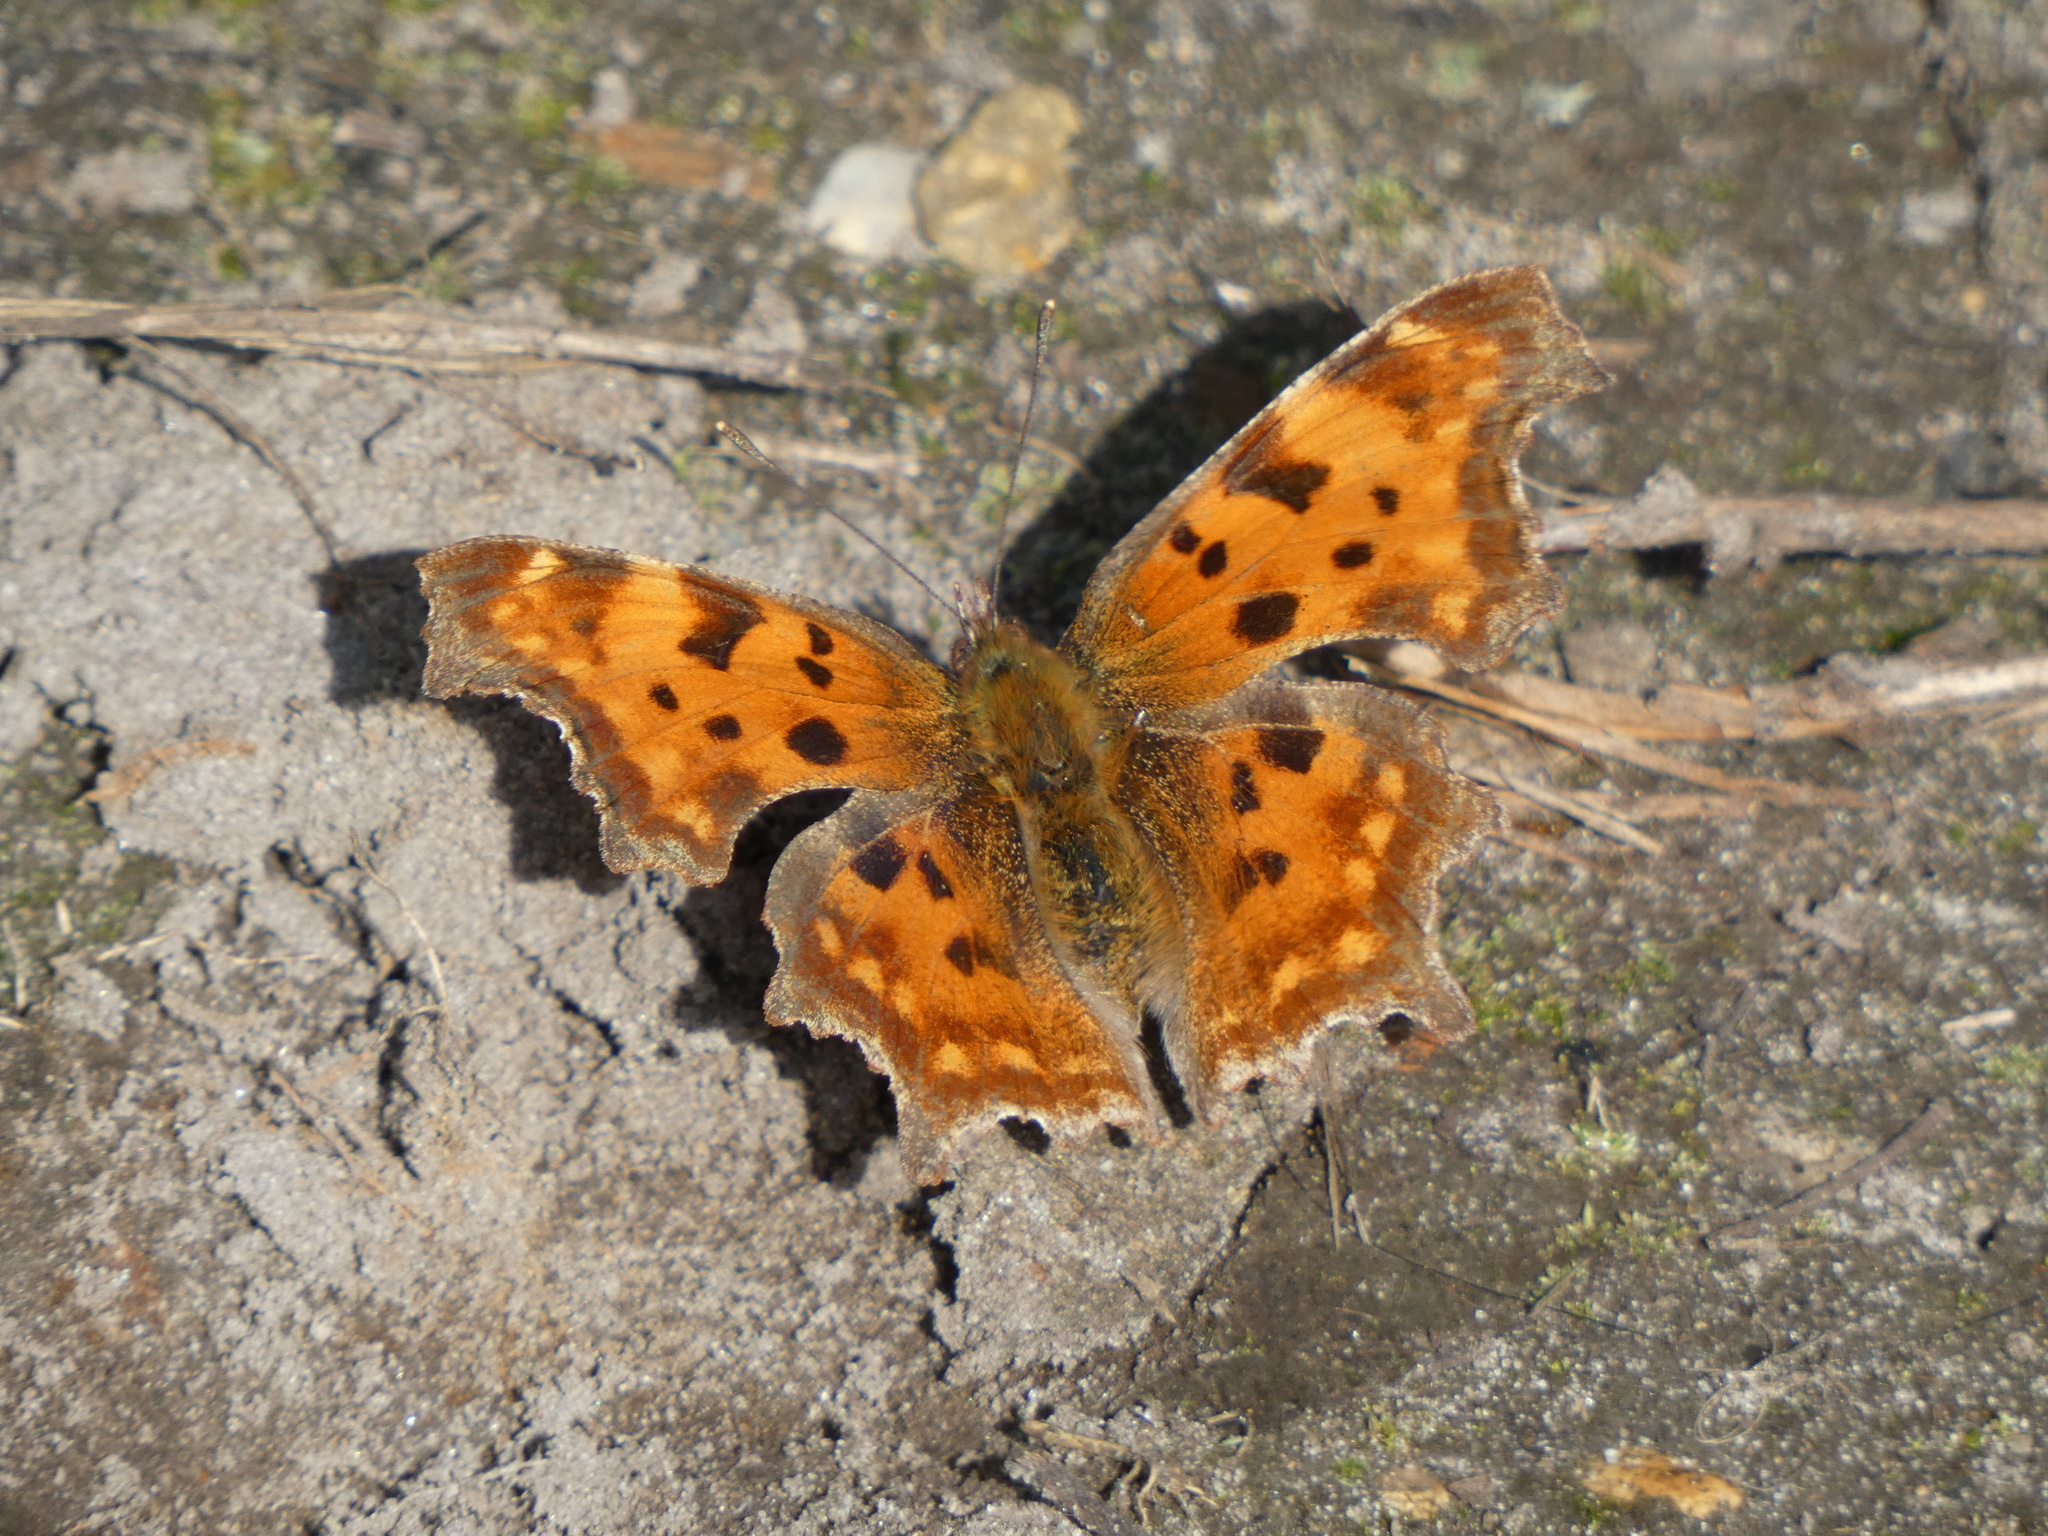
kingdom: Animalia
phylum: Arthropoda
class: Insecta
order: Lepidoptera
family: Nymphalidae
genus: Polygonia
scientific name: Polygonia c-album
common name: Comma
